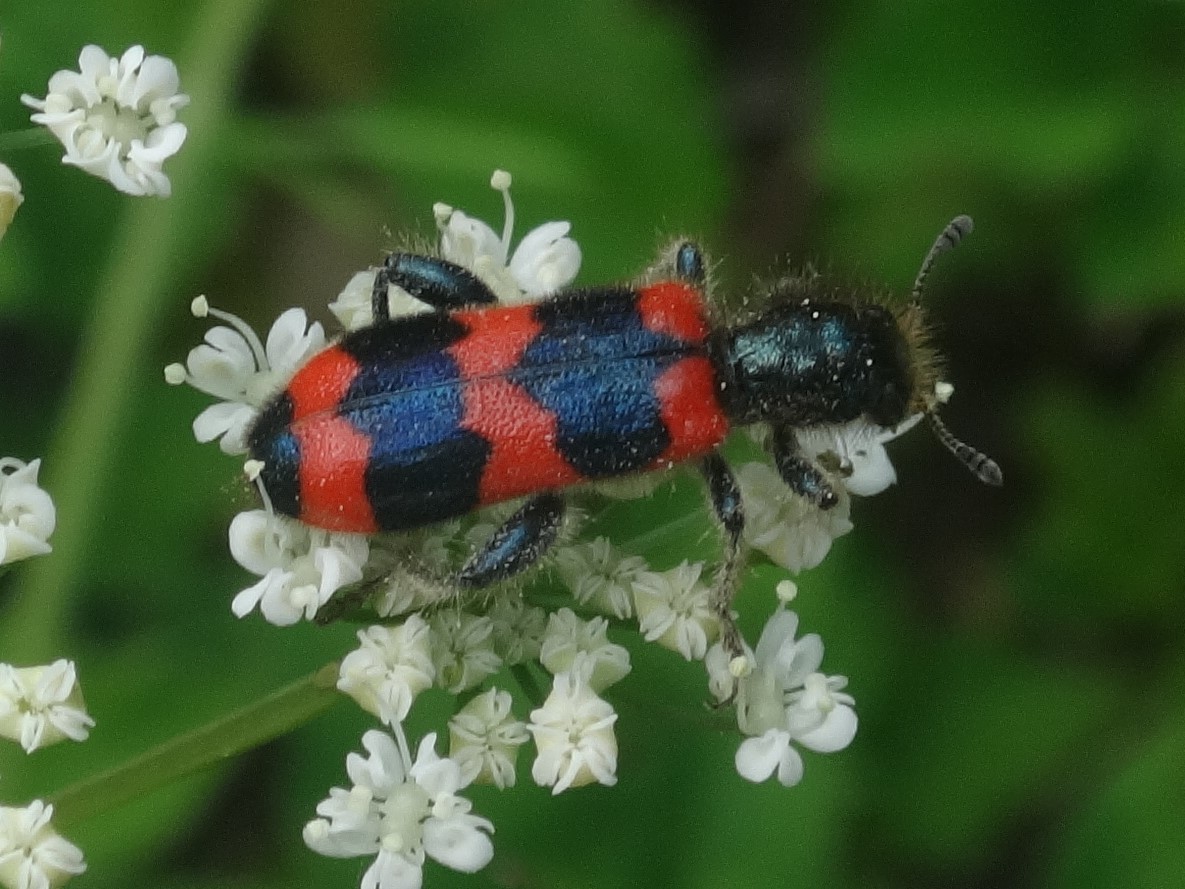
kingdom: Animalia
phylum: Arthropoda
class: Insecta
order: Coleoptera
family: Cleridae
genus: Trichodes
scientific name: Trichodes apiarius
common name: Bee-eating beetle
